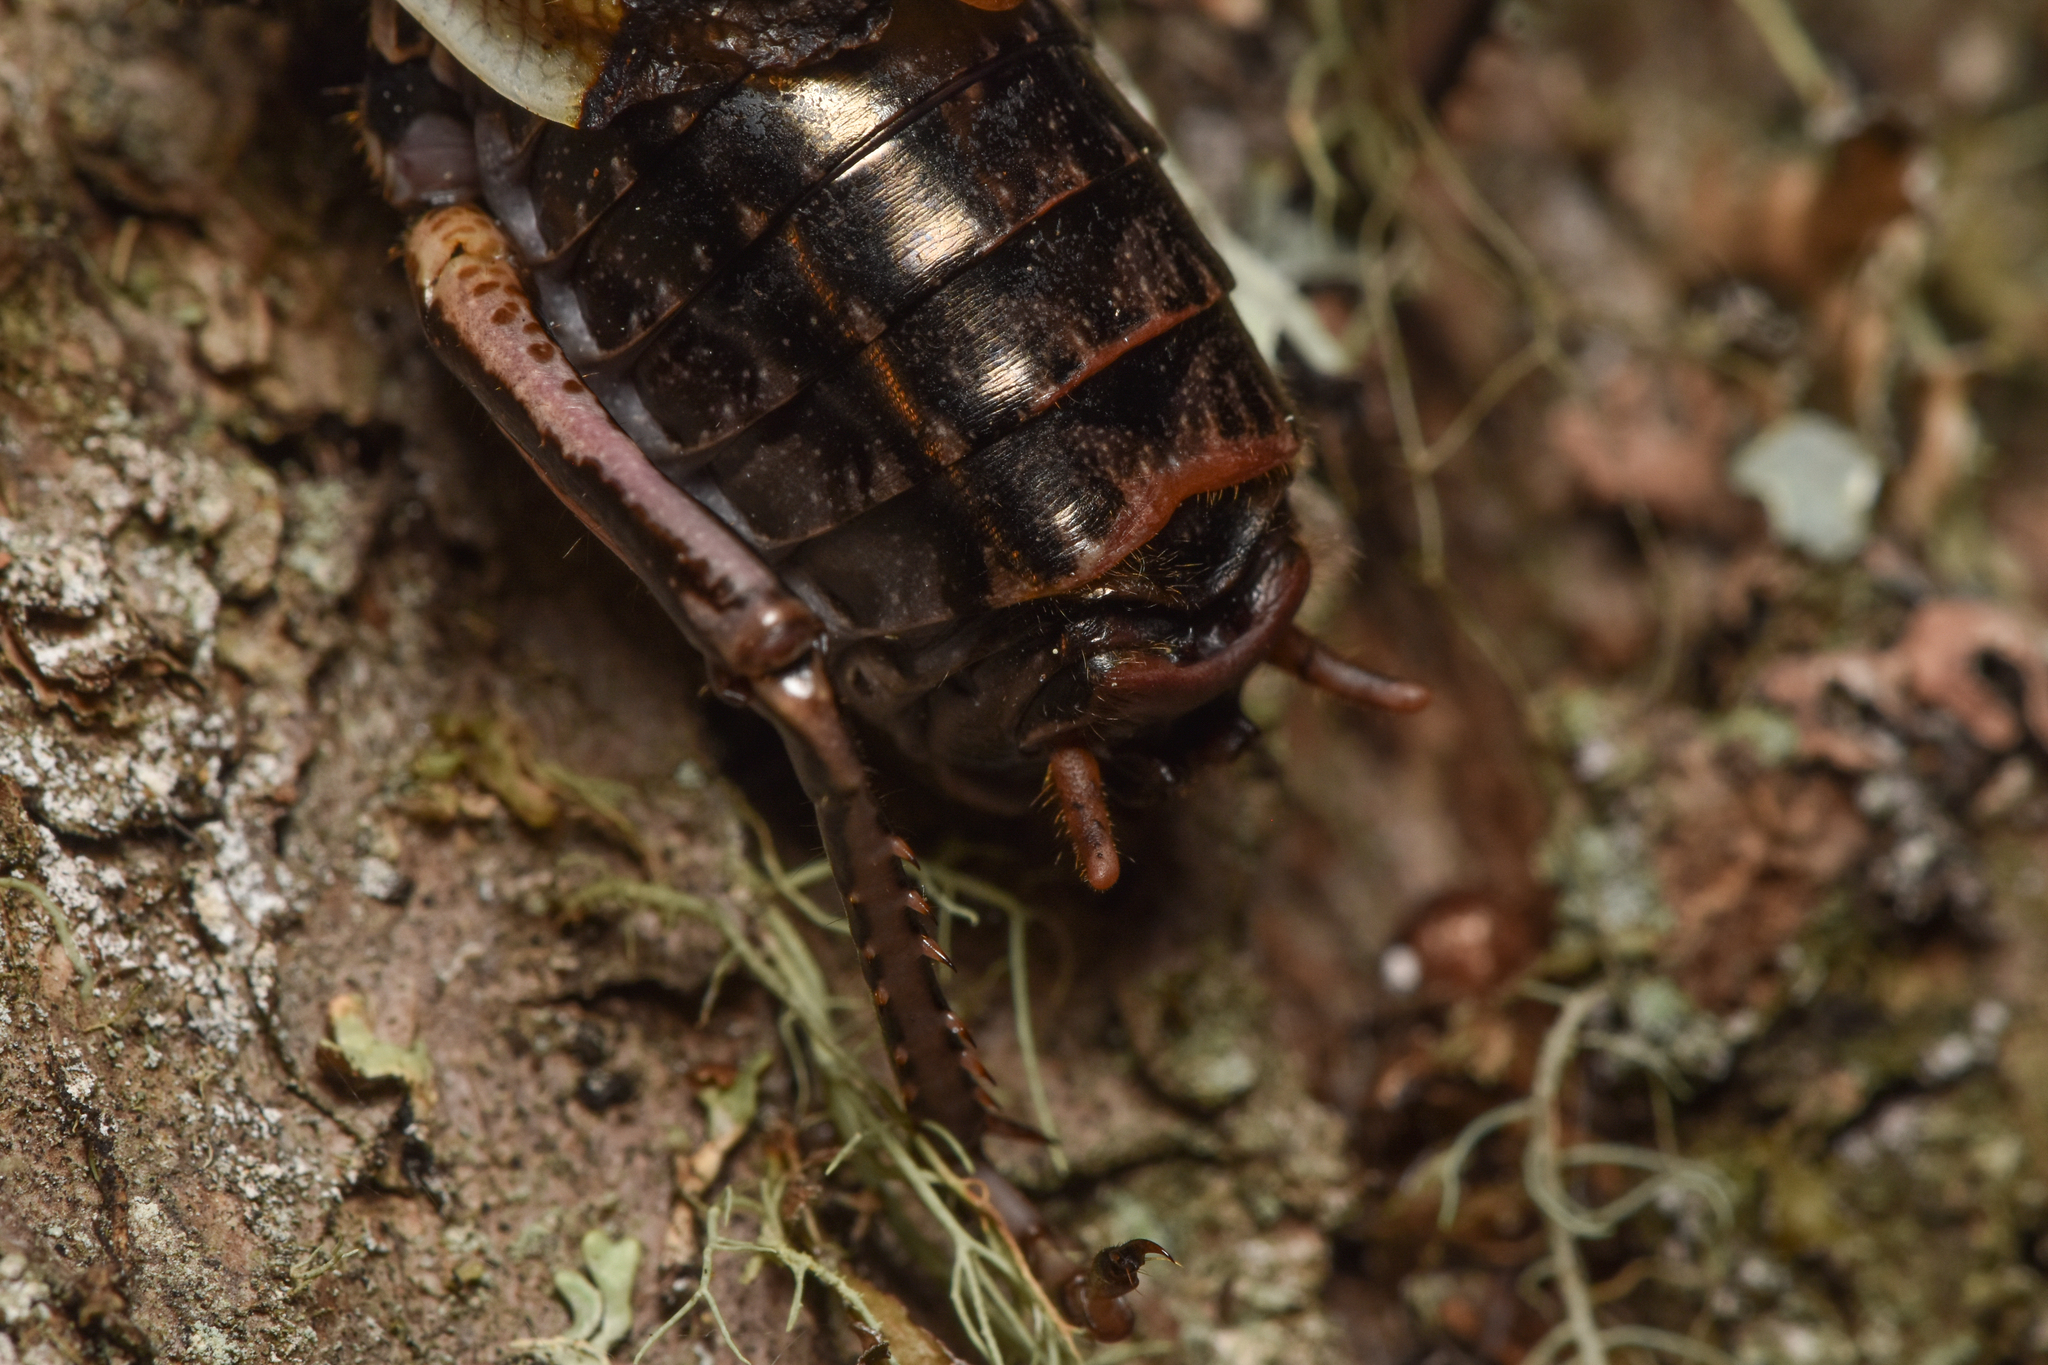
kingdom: Animalia
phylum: Arthropoda
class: Insecta
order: Orthoptera
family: Prophalangopsidae
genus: Cyphoderris
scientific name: Cyphoderris monstrosa
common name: Great grig
